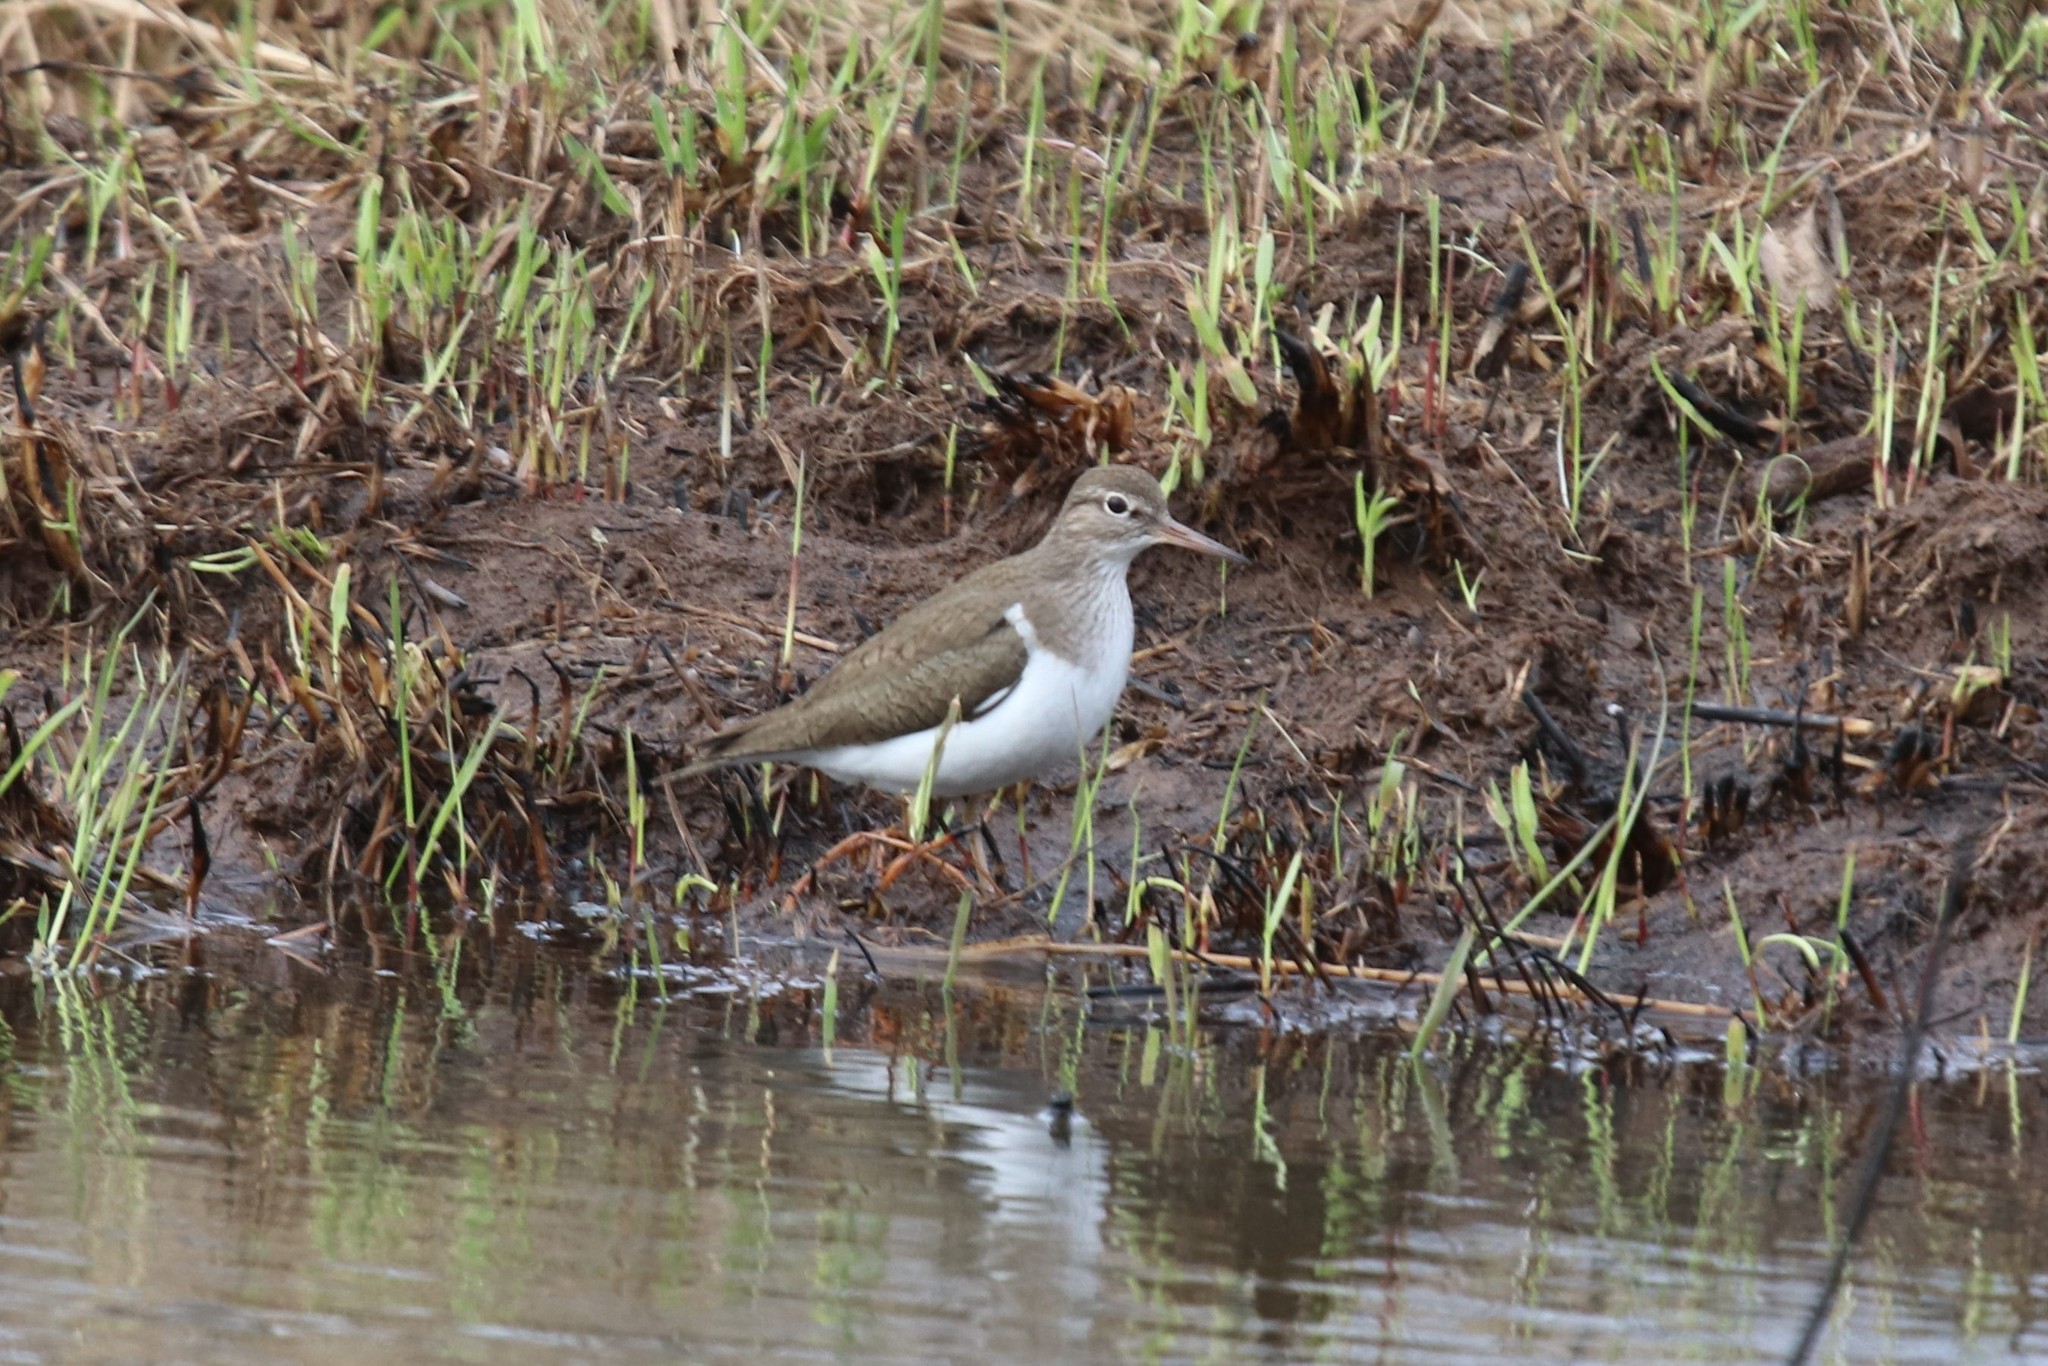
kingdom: Animalia
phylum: Chordata
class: Aves
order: Charadriiformes
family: Scolopacidae
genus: Actitis
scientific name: Actitis hypoleucos
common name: Common sandpiper
